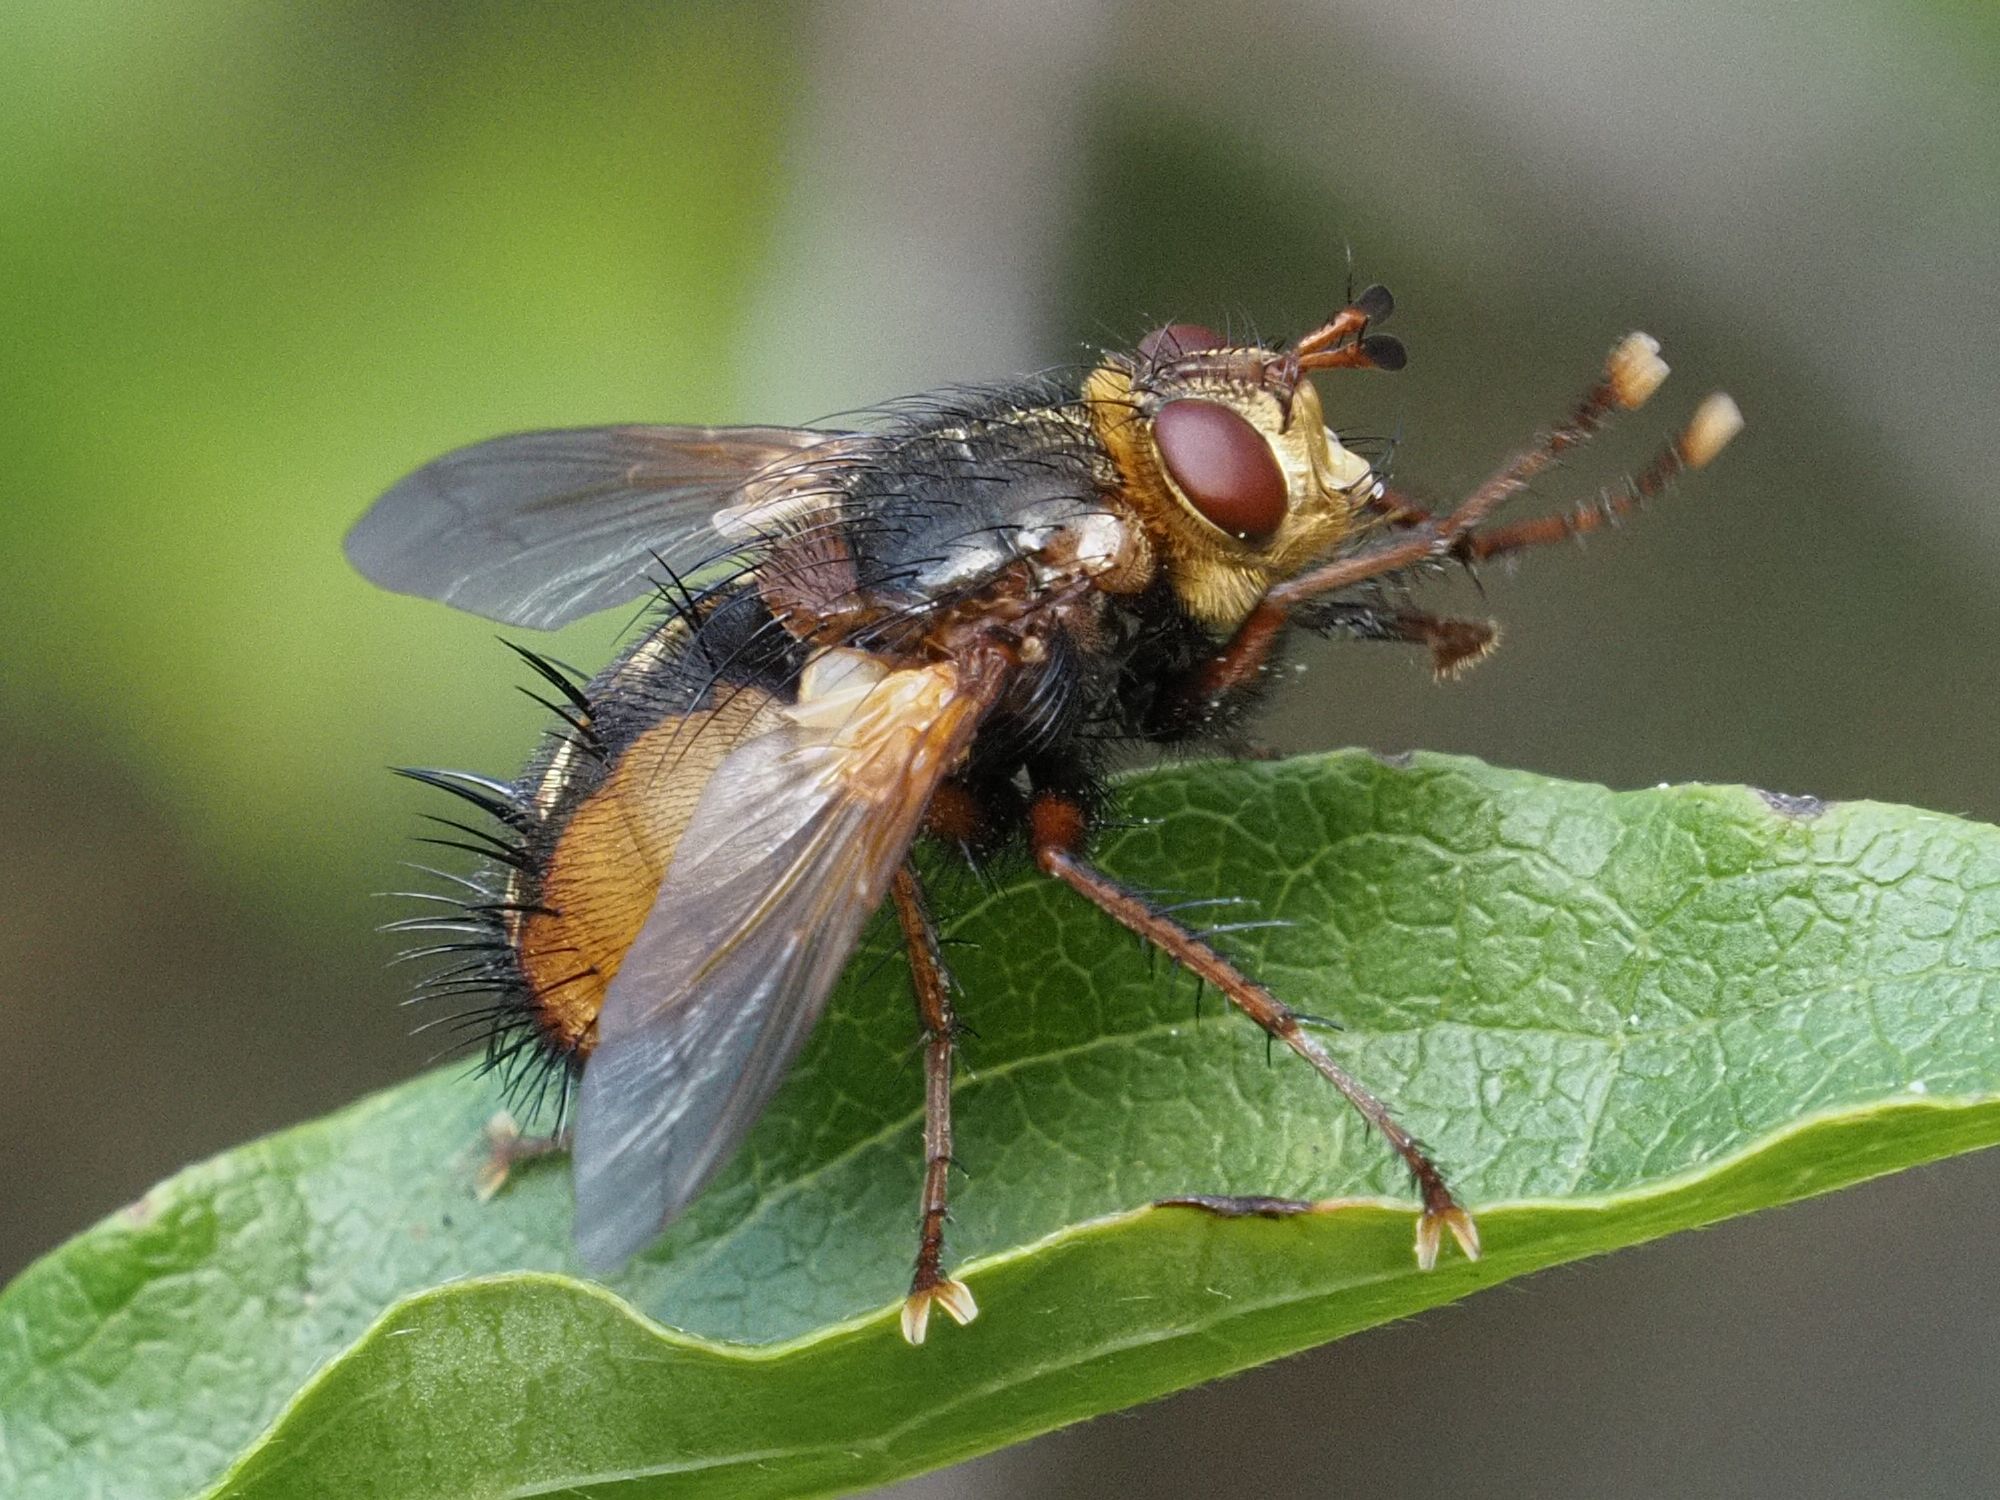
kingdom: Animalia
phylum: Arthropoda
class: Insecta
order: Diptera
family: Tachinidae
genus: Tachina
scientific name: Tachina fera
